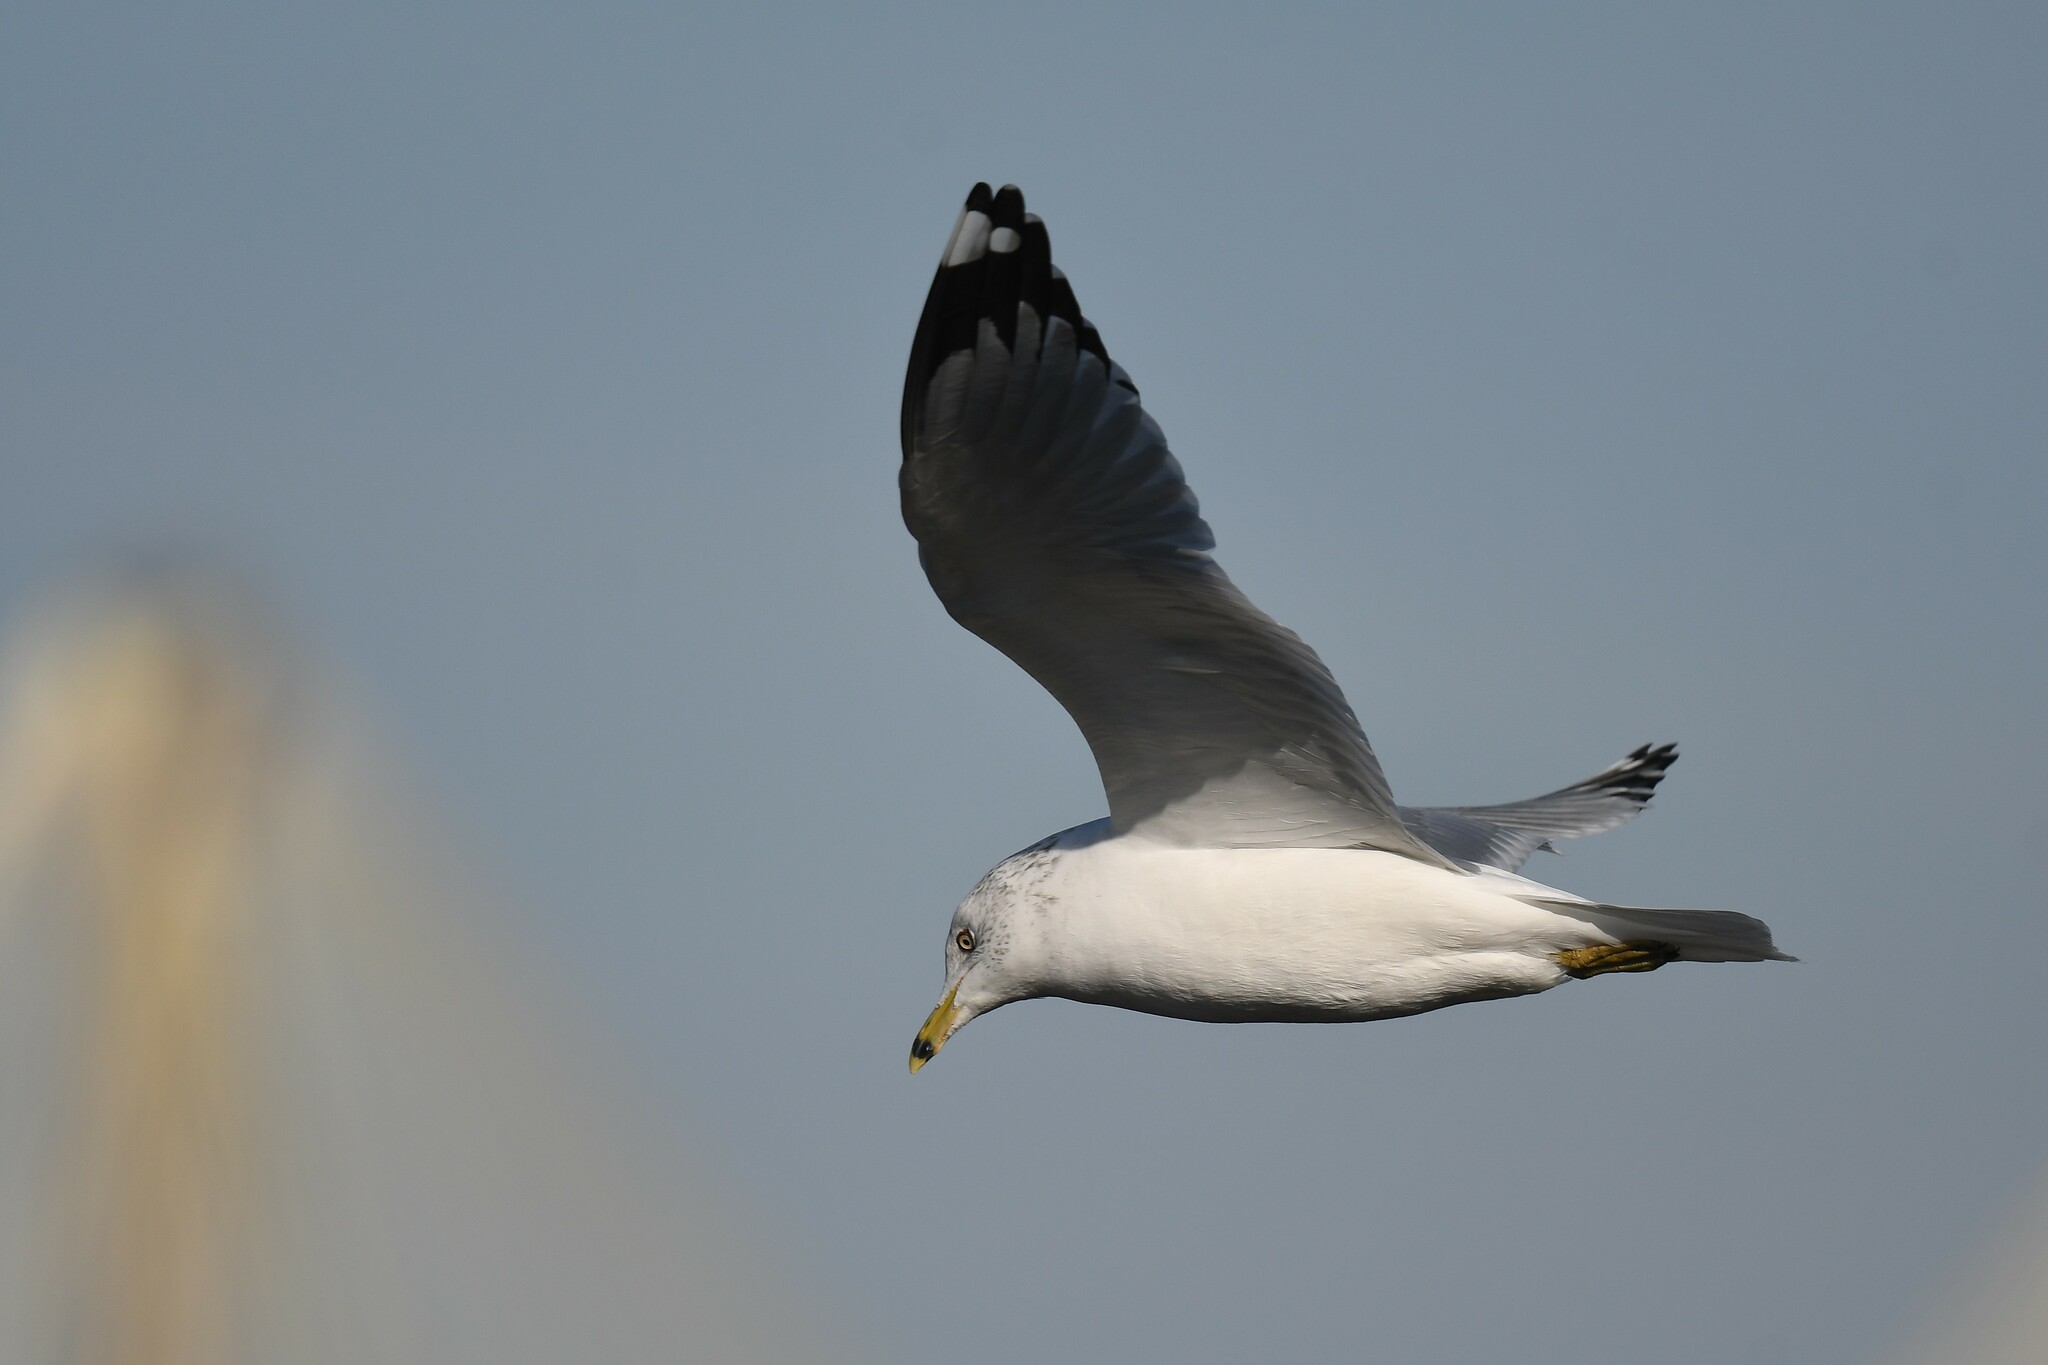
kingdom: Animalia
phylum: Chordata
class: Aves
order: Charadriiformes
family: Laridae
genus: Larus
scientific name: Larus delawarensis
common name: Ring-billed gull
